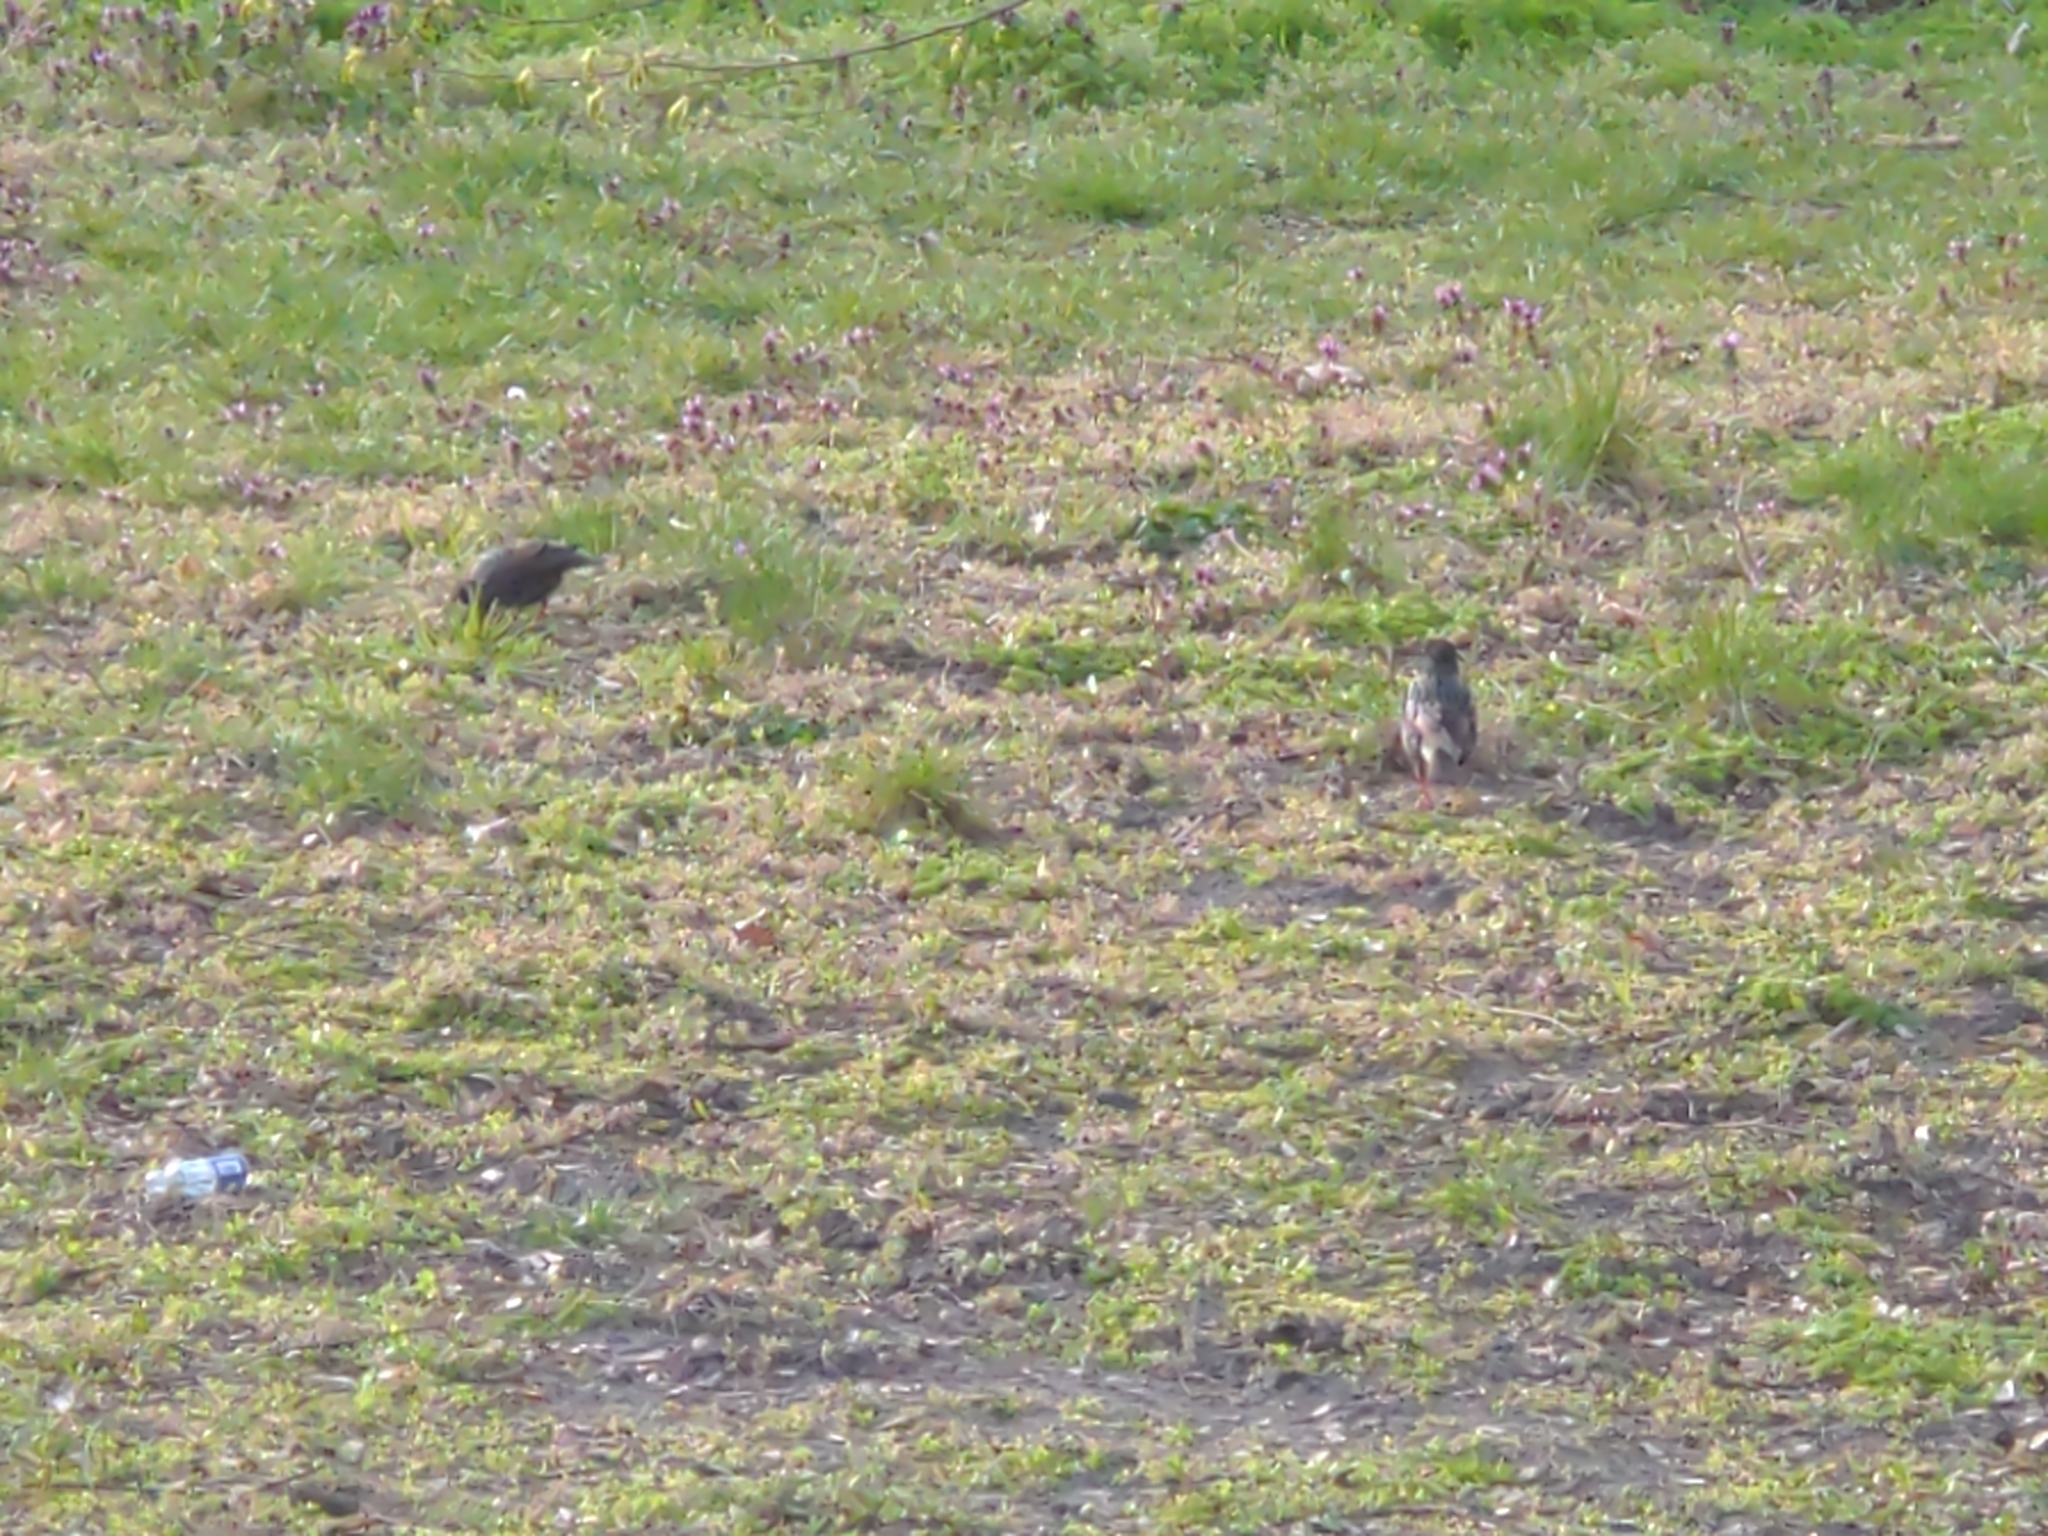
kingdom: Animalia
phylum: Chordata
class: Aves
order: Passeriformes
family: Sturnidae
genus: Sturnus
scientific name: Sturnus vulgaris
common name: Common starling
